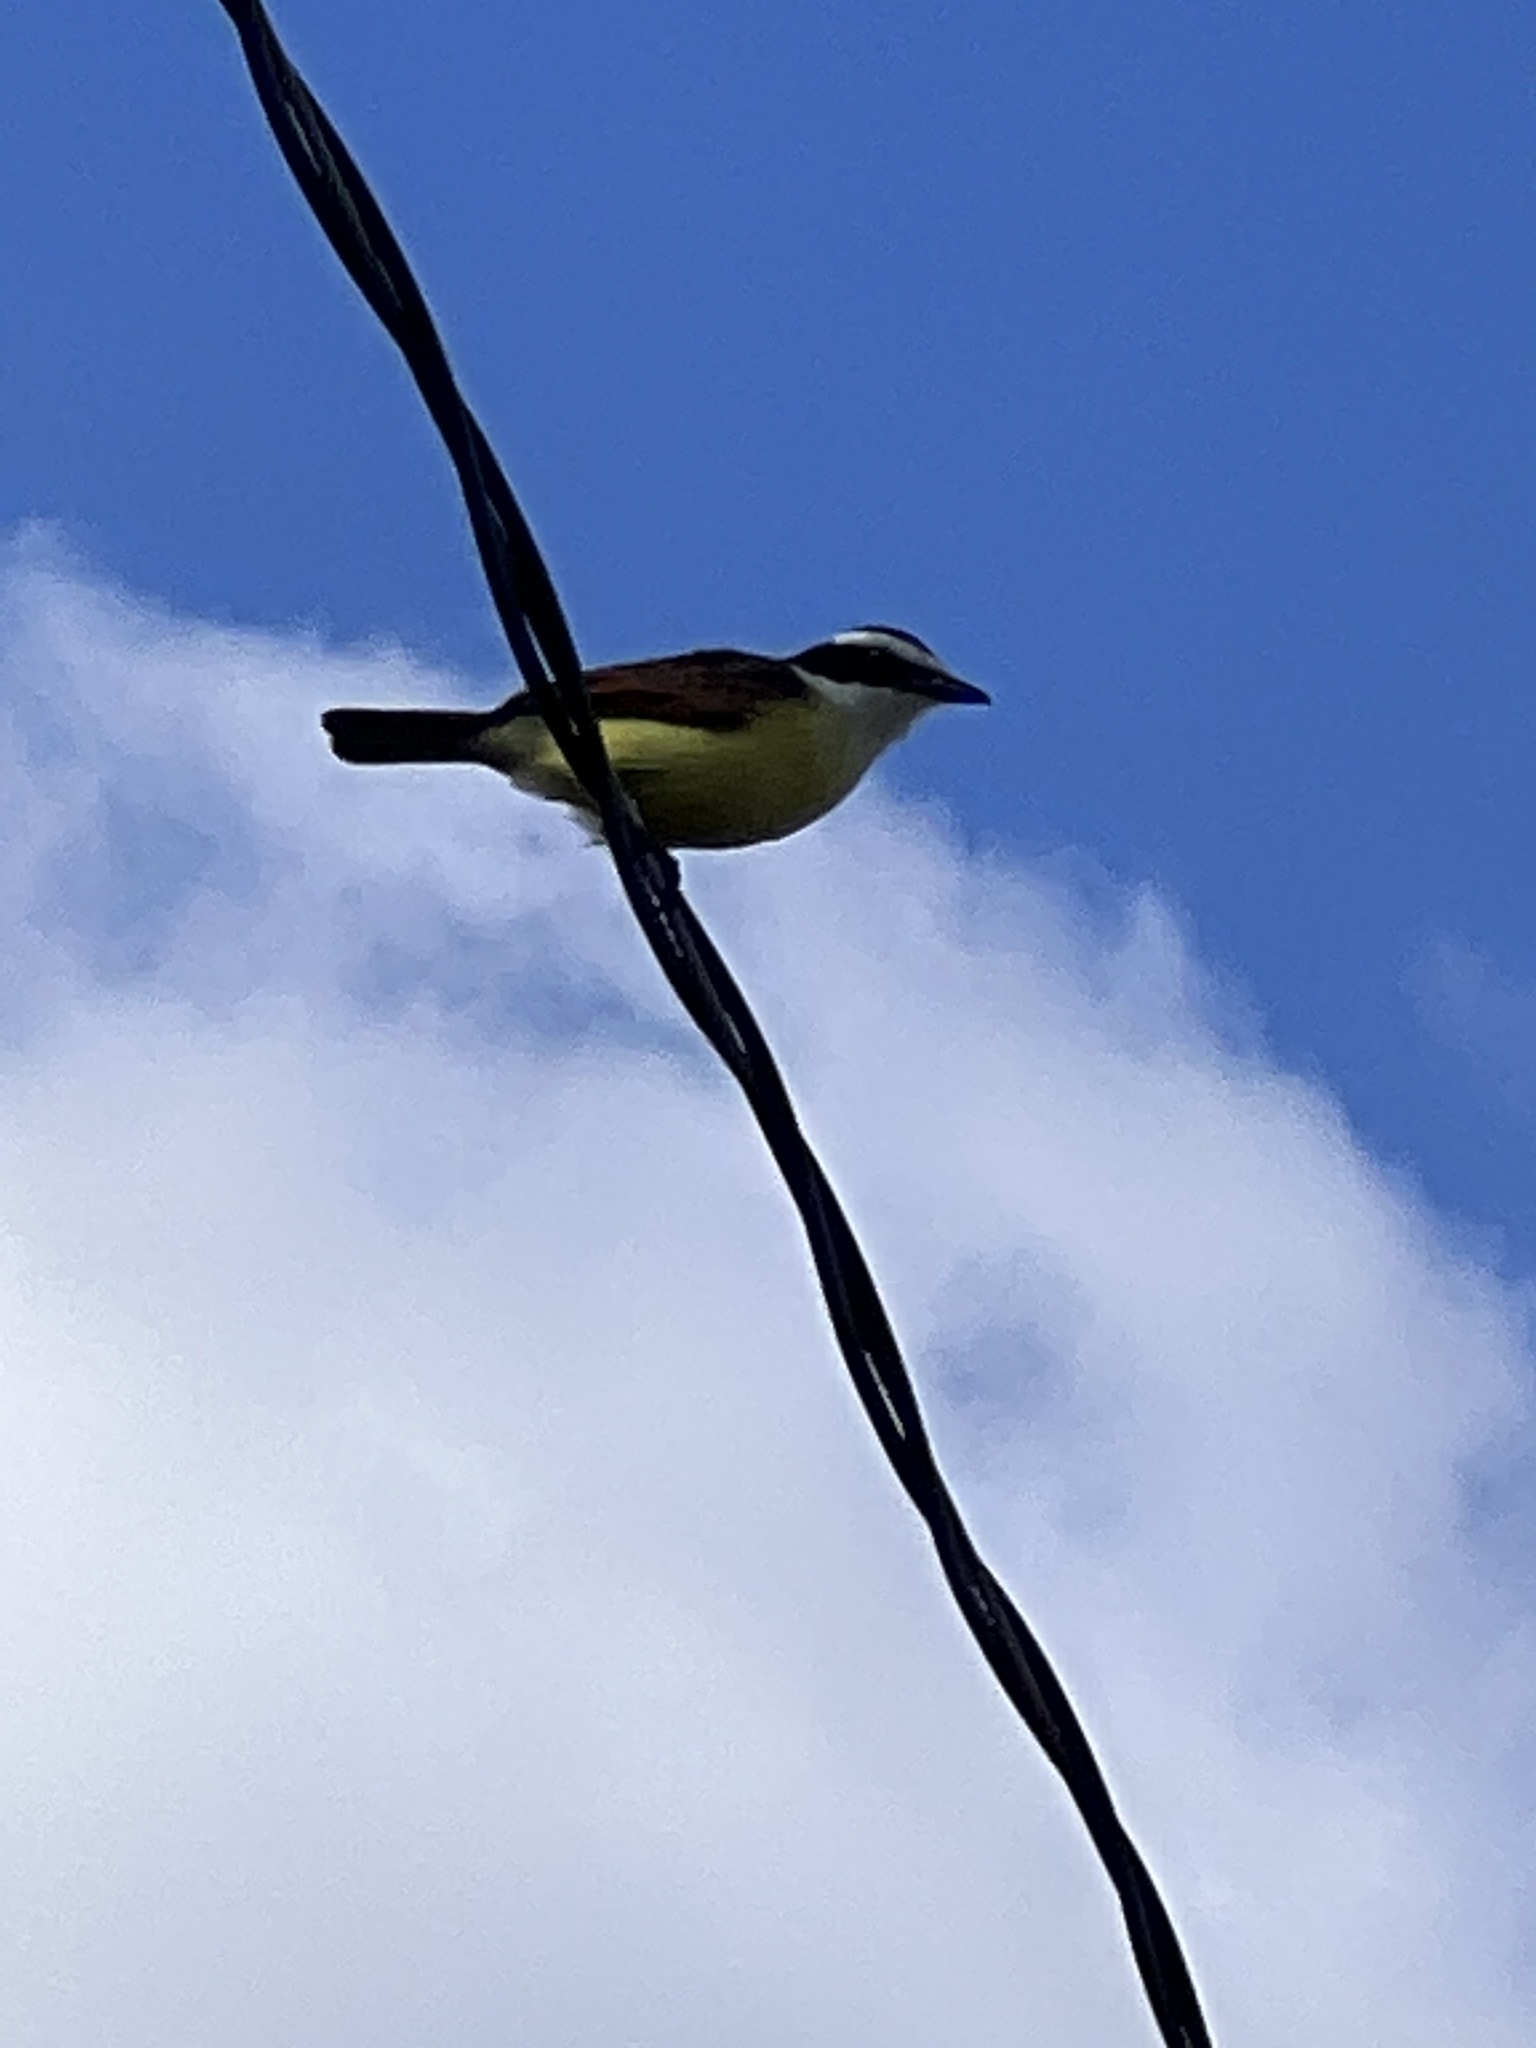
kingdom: Animalia
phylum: Chordata
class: Aves
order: Passeriformes
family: Tyrannidae
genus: Pitangus
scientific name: Pitangus sulphuratus
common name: Great kiskadee
